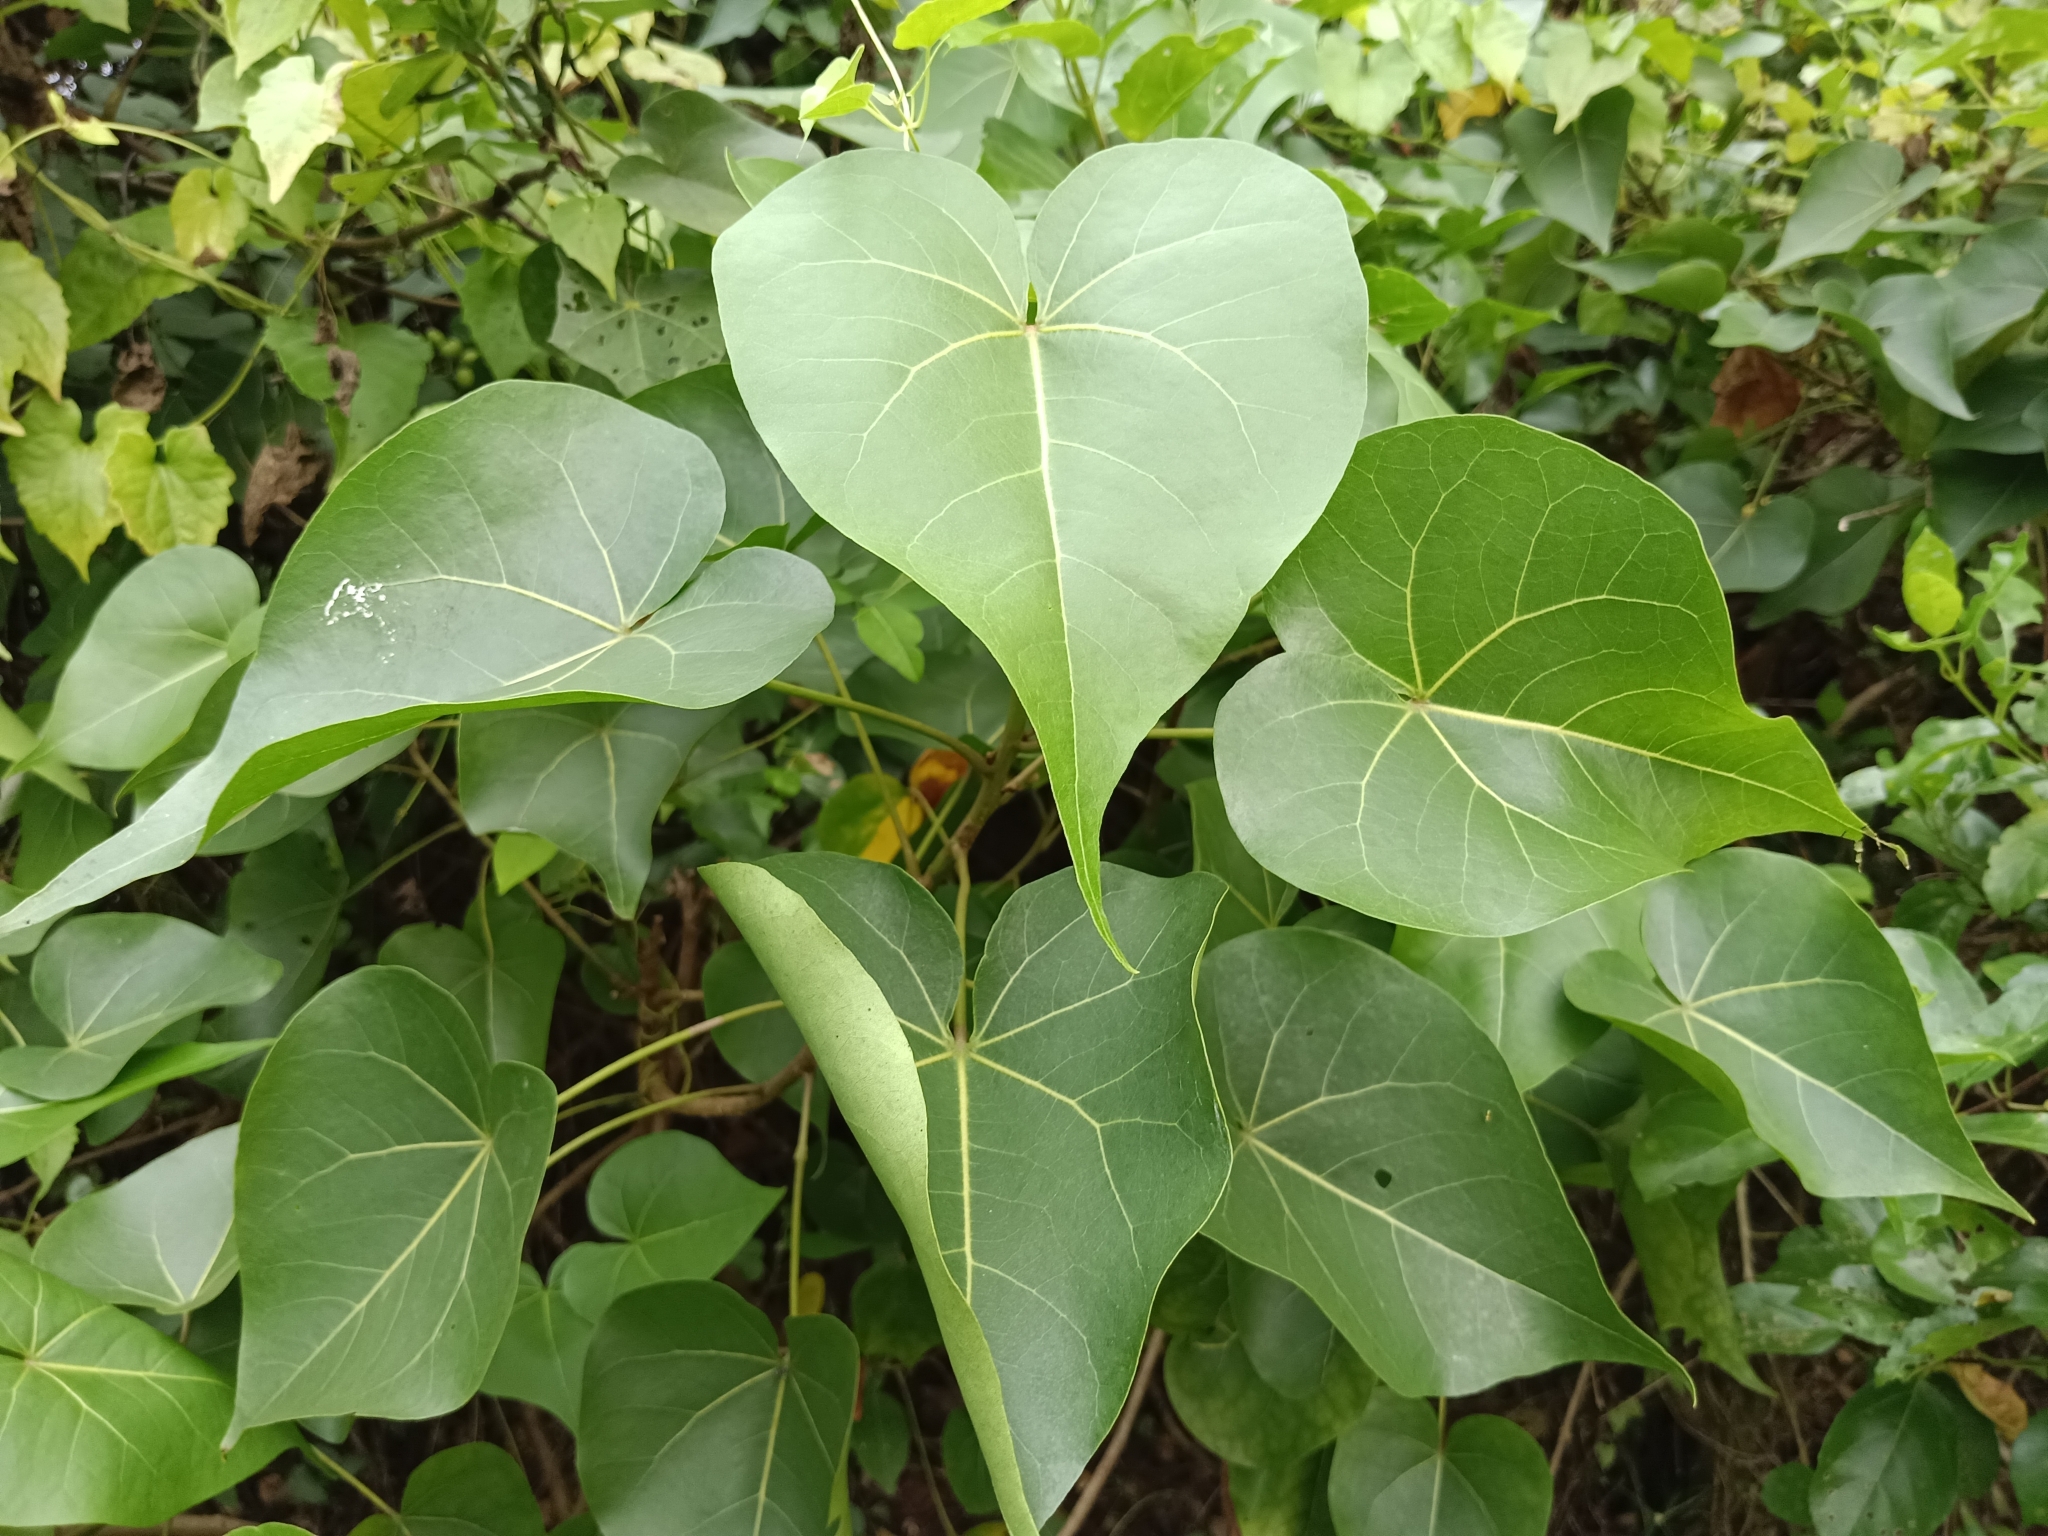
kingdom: Plantae
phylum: Tracheophyta
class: Magnoliopsida
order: Malvales
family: Malvaceae
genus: Thespesia
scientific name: Thespesia populnea
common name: Seaside mahoe
